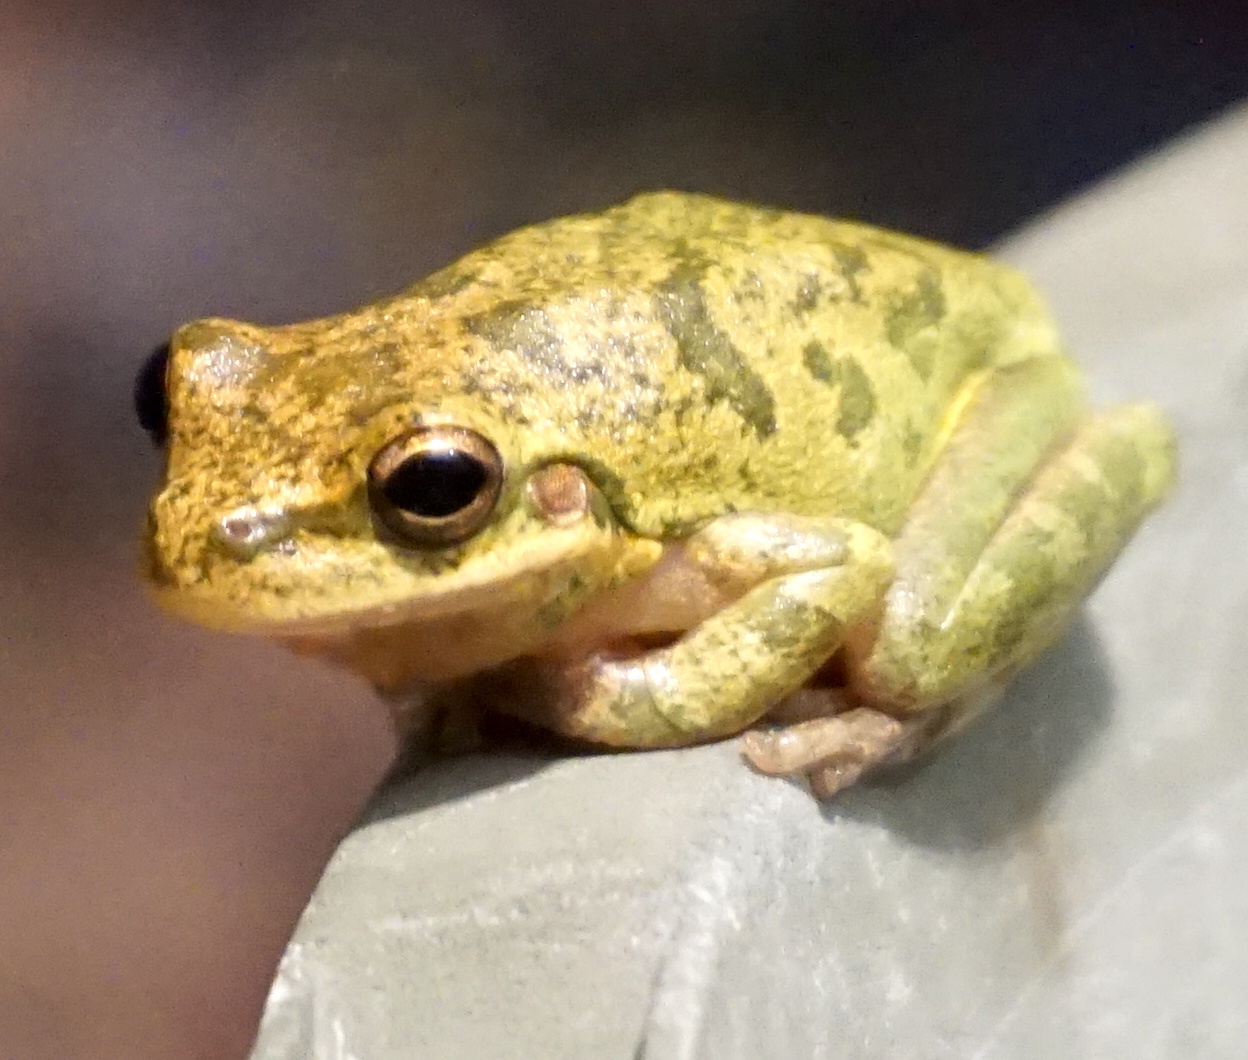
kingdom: Animalia
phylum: Chordata
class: Amphibia
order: Anura
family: Hylidae
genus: Dryophytes
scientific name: Dryophytes squirellus
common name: Squirrel treefrog
